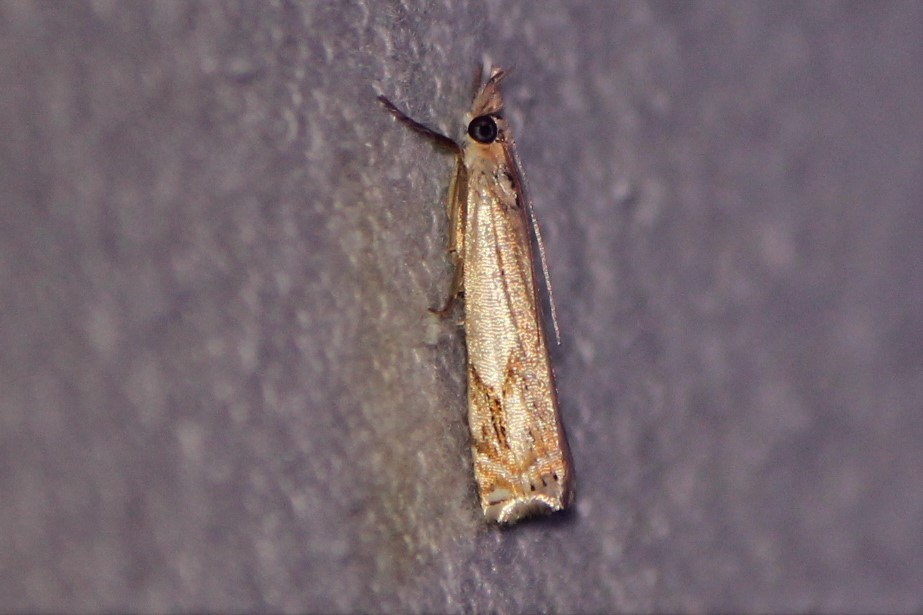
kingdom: Animalia
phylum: Arthropoda
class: Insecta
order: Lepidoptera
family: Crambidae
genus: Crambus
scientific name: Crambus agitatellus
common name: Double-banded grass-veneer
